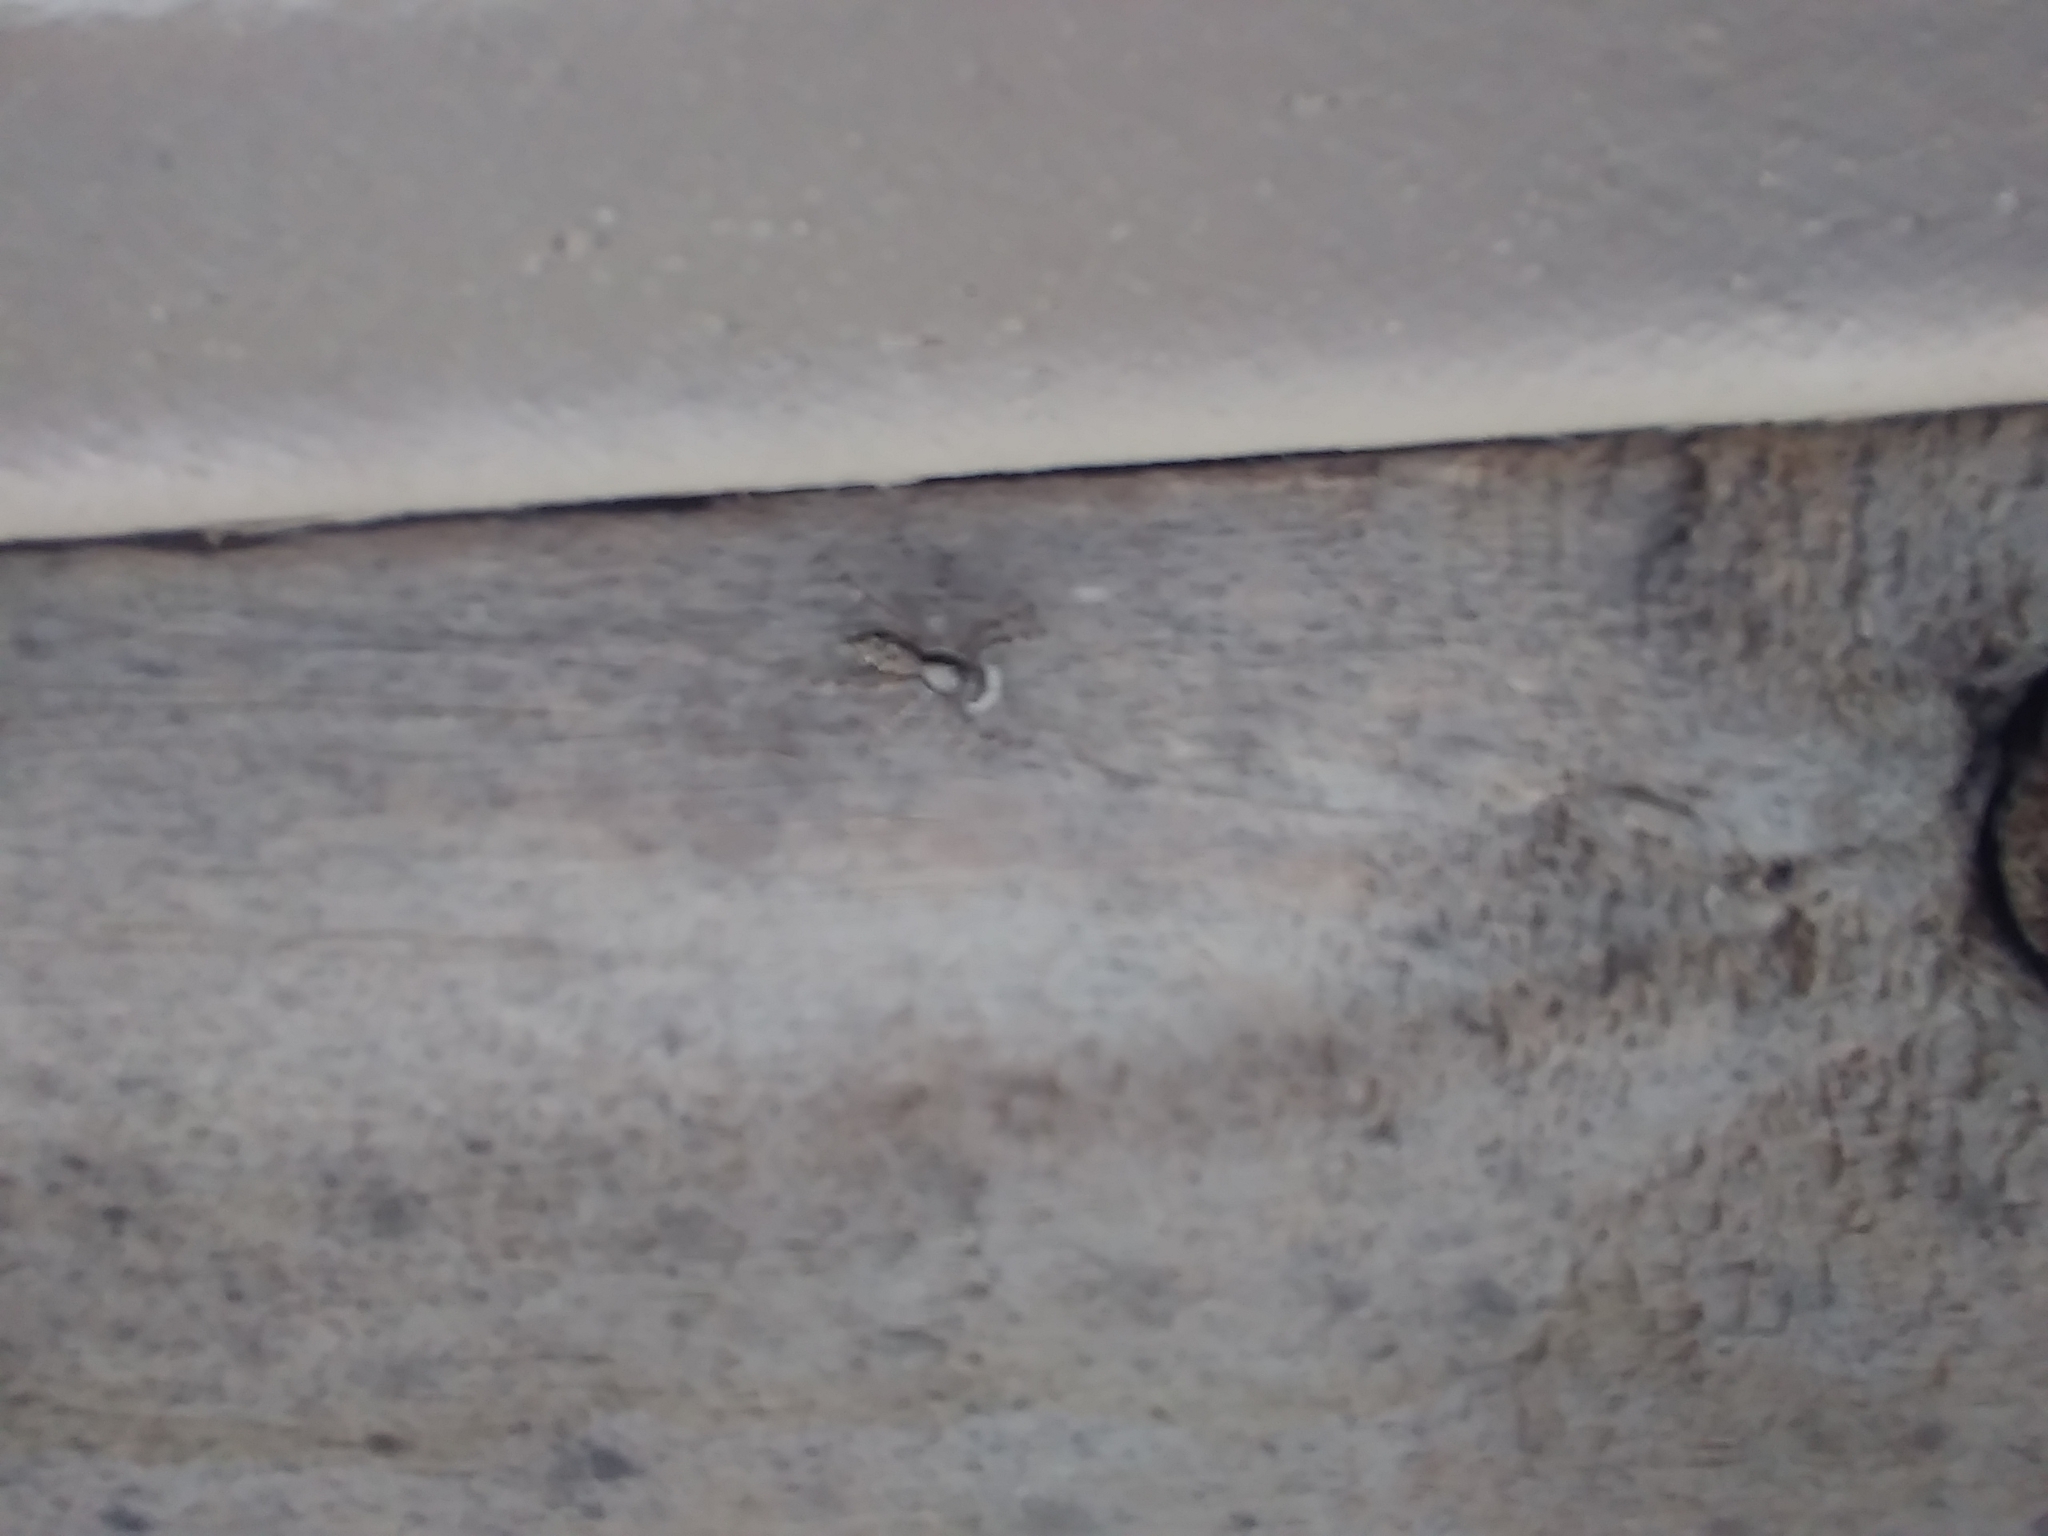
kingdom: Animalia
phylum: Arthropoda
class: Arachnida
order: Araneae
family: Salticidae
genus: Menemerus
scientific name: Menemerus bivittatus
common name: Gray wall jumper
